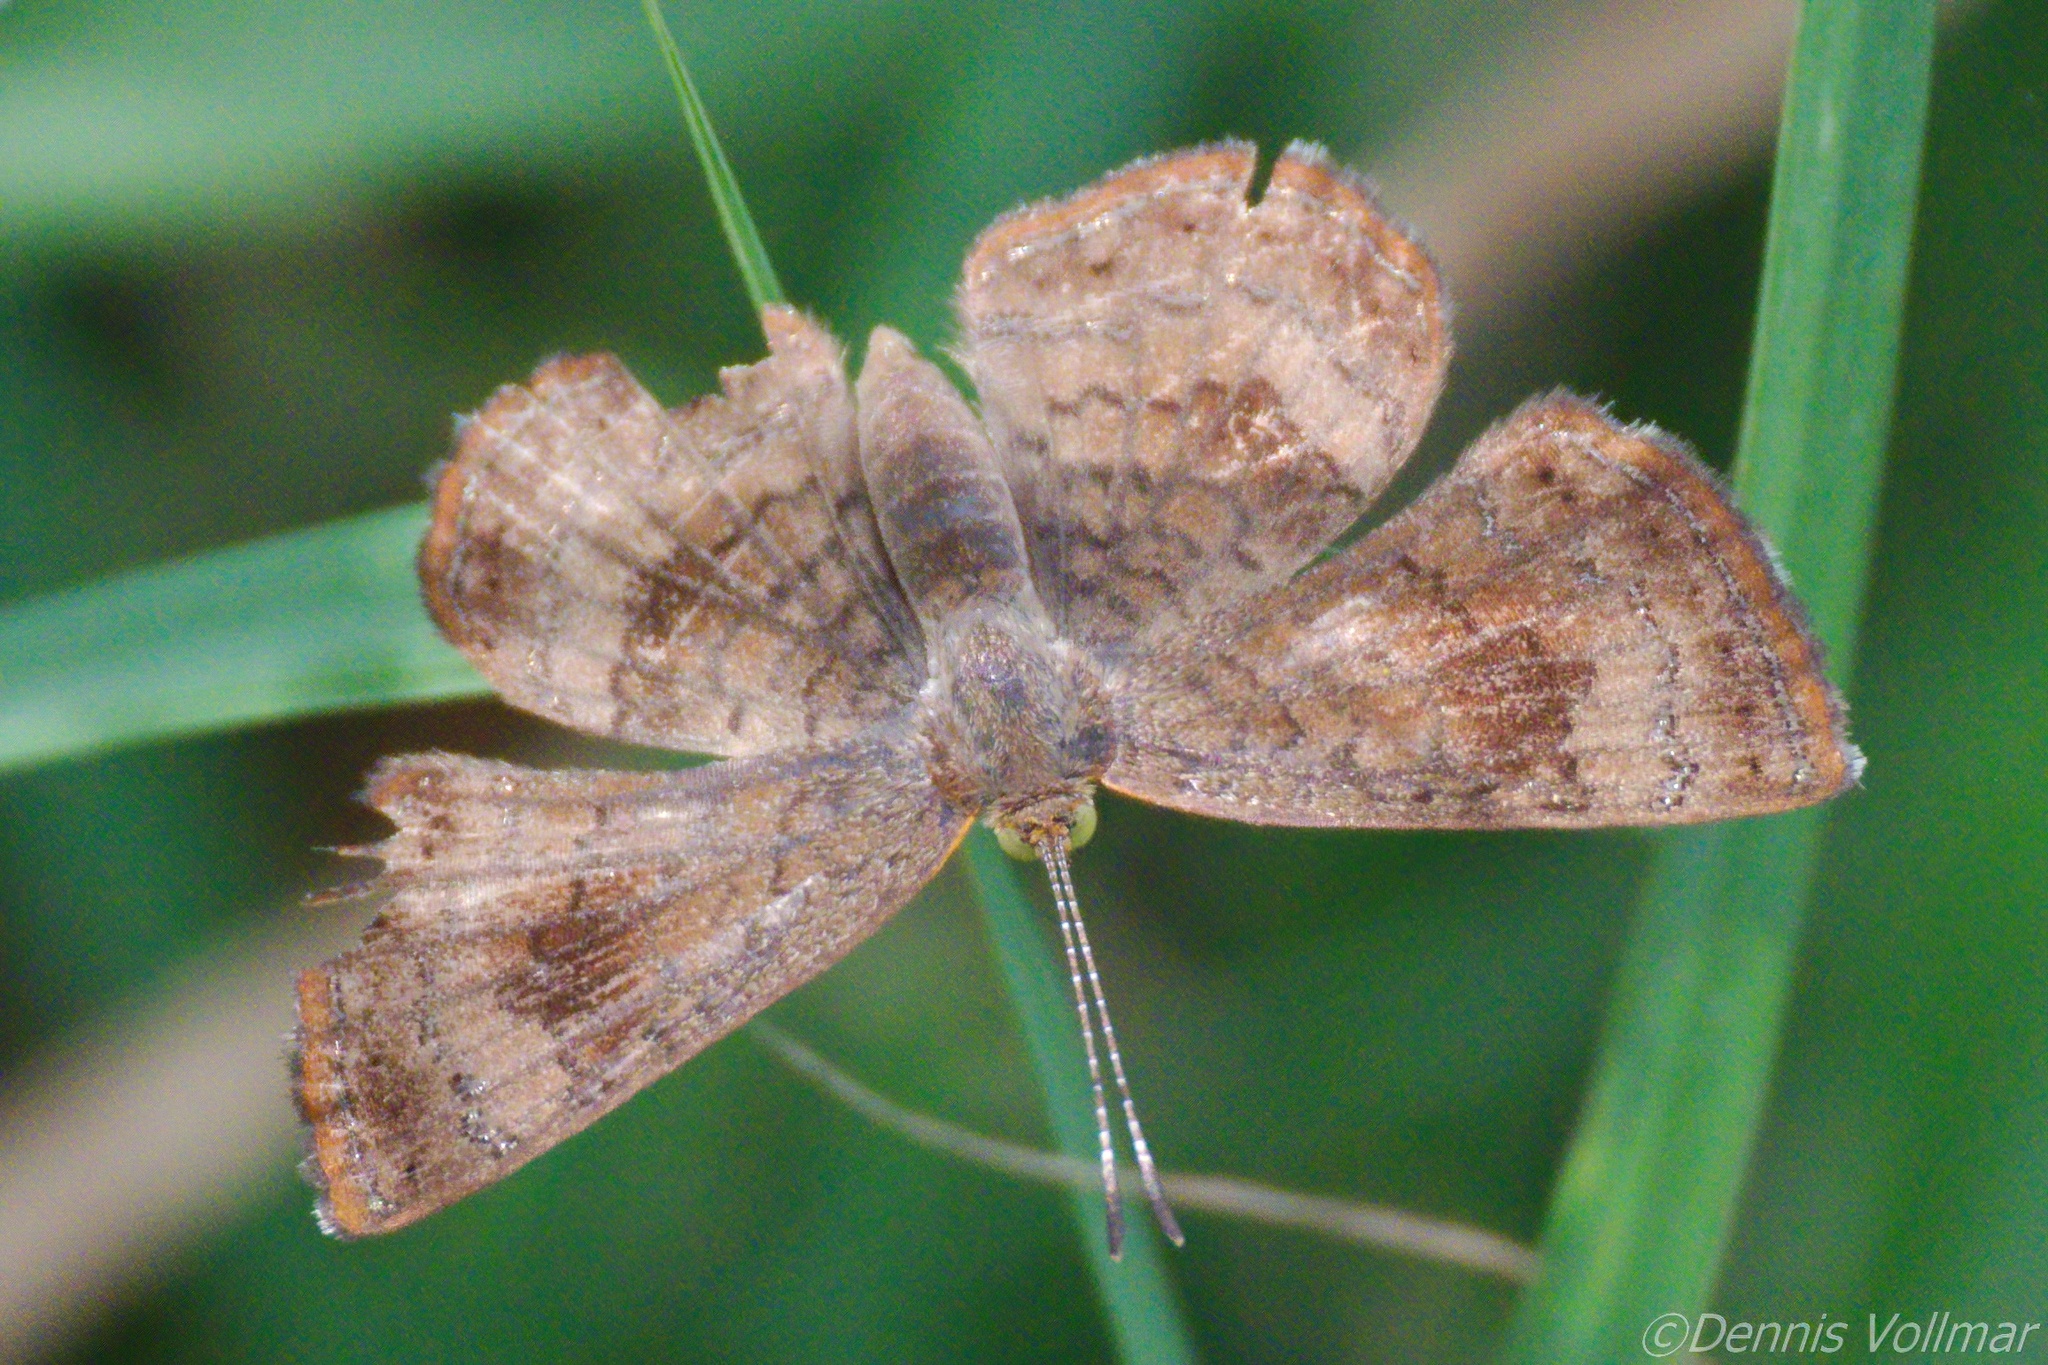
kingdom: Animalia
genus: Calephelis
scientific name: Calephelis nemesis
